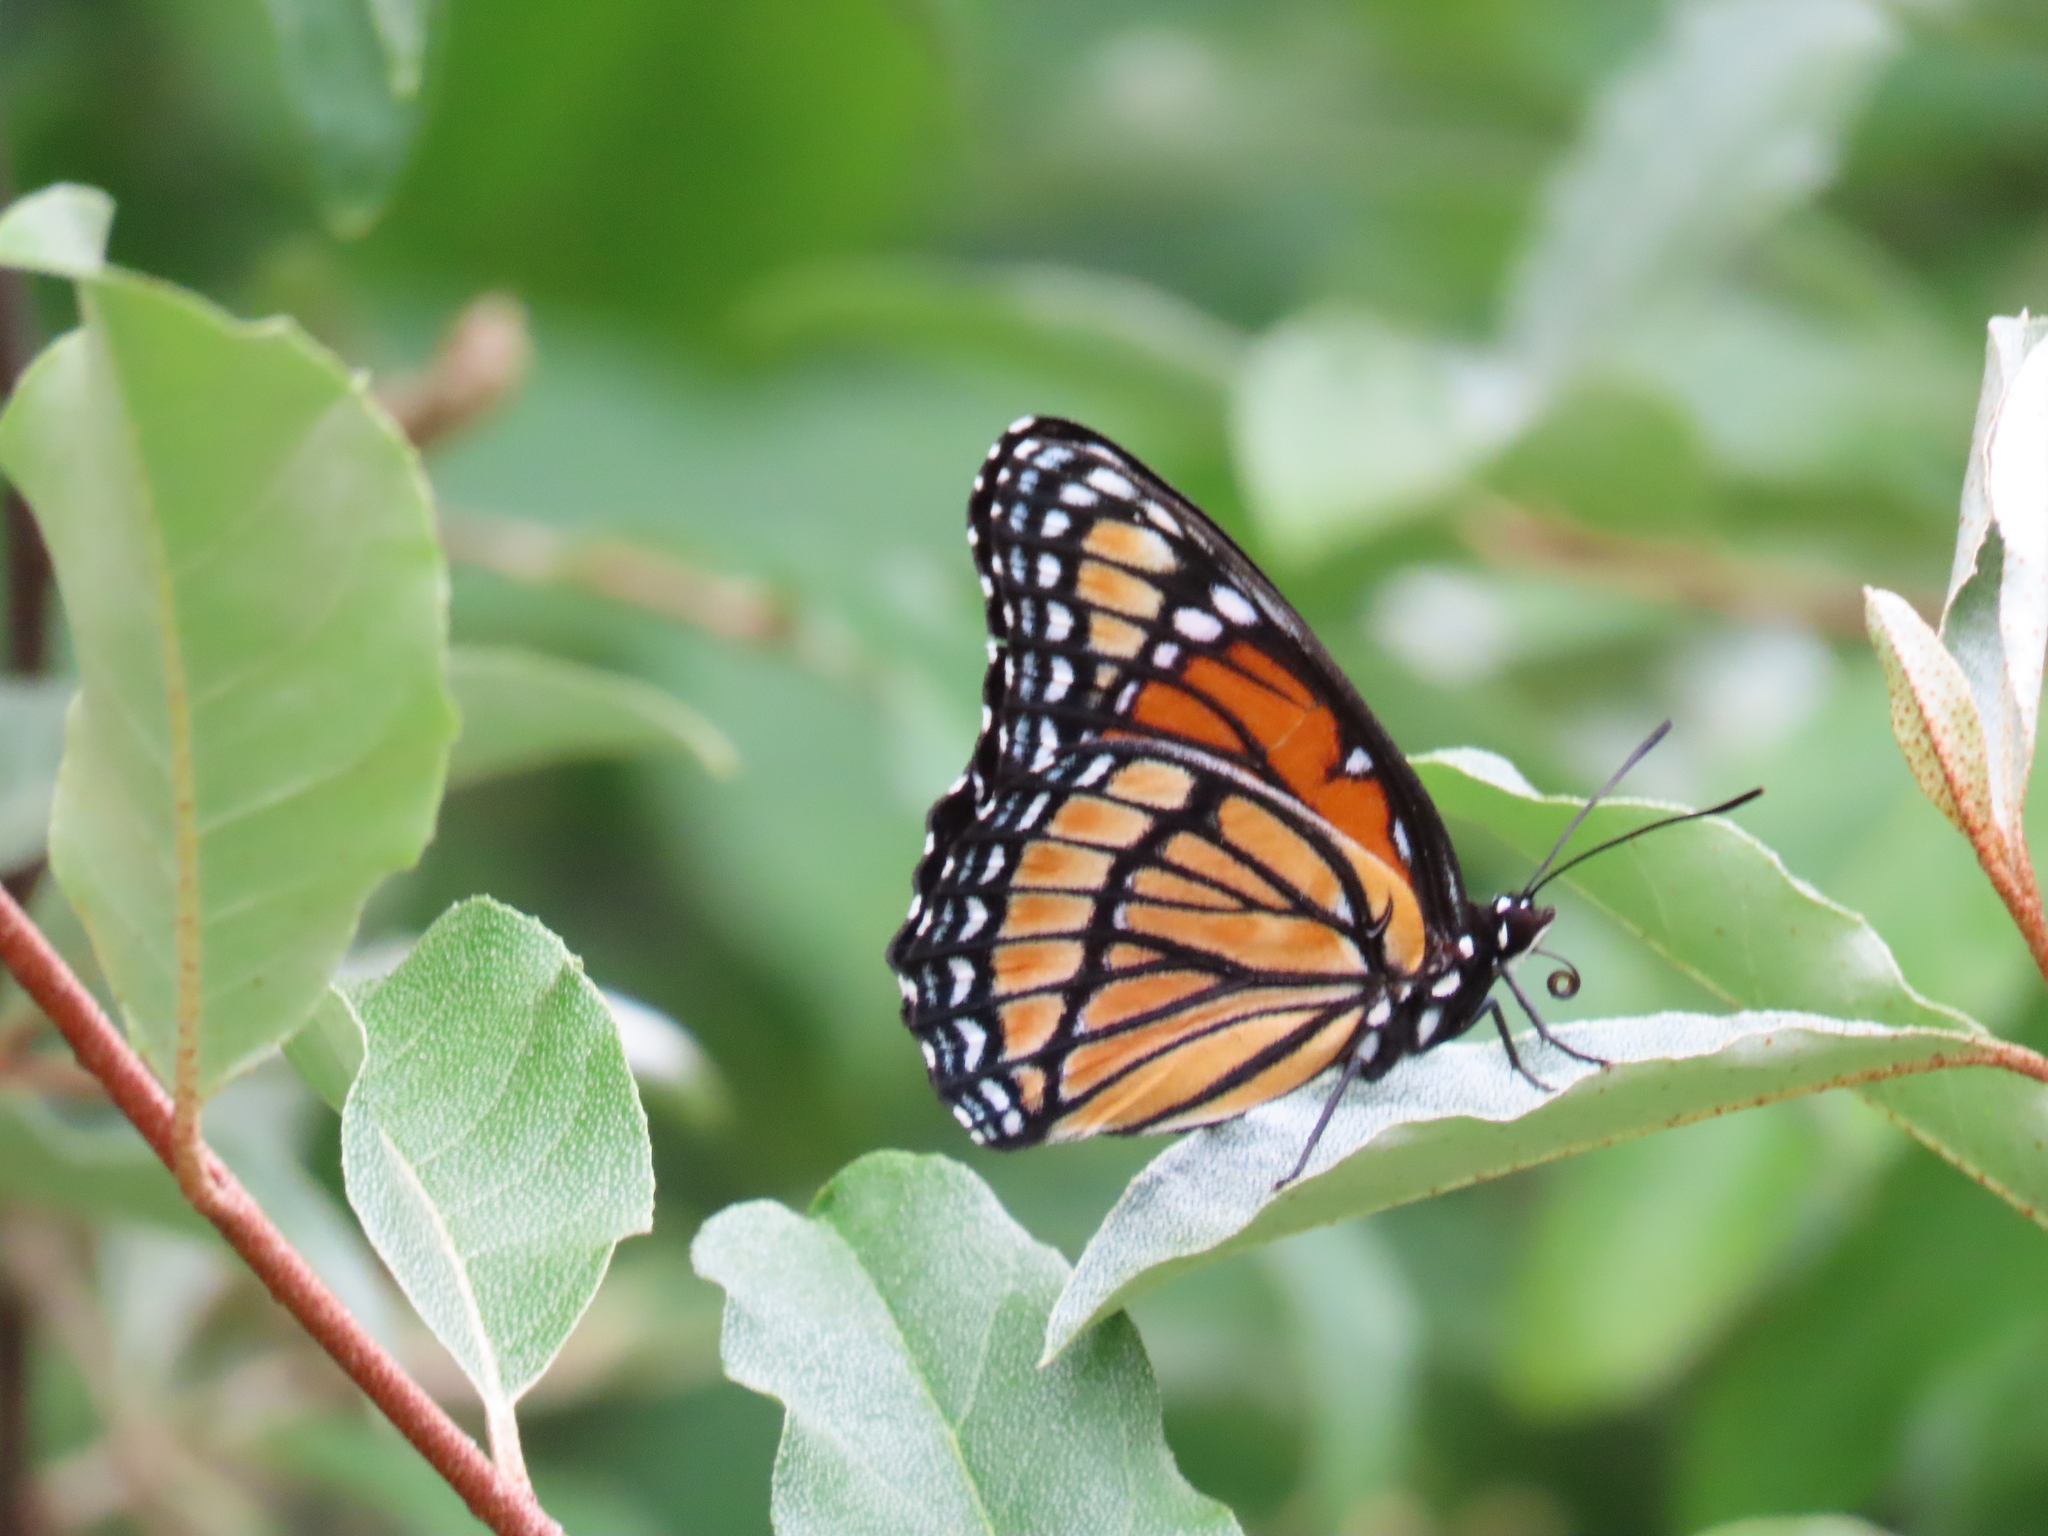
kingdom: Animalia
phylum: Arthropoda
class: Insecta
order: Lepidoptera
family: Nymphalidae
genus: Limenitis
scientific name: Limenitis archippus
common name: Viceroy
